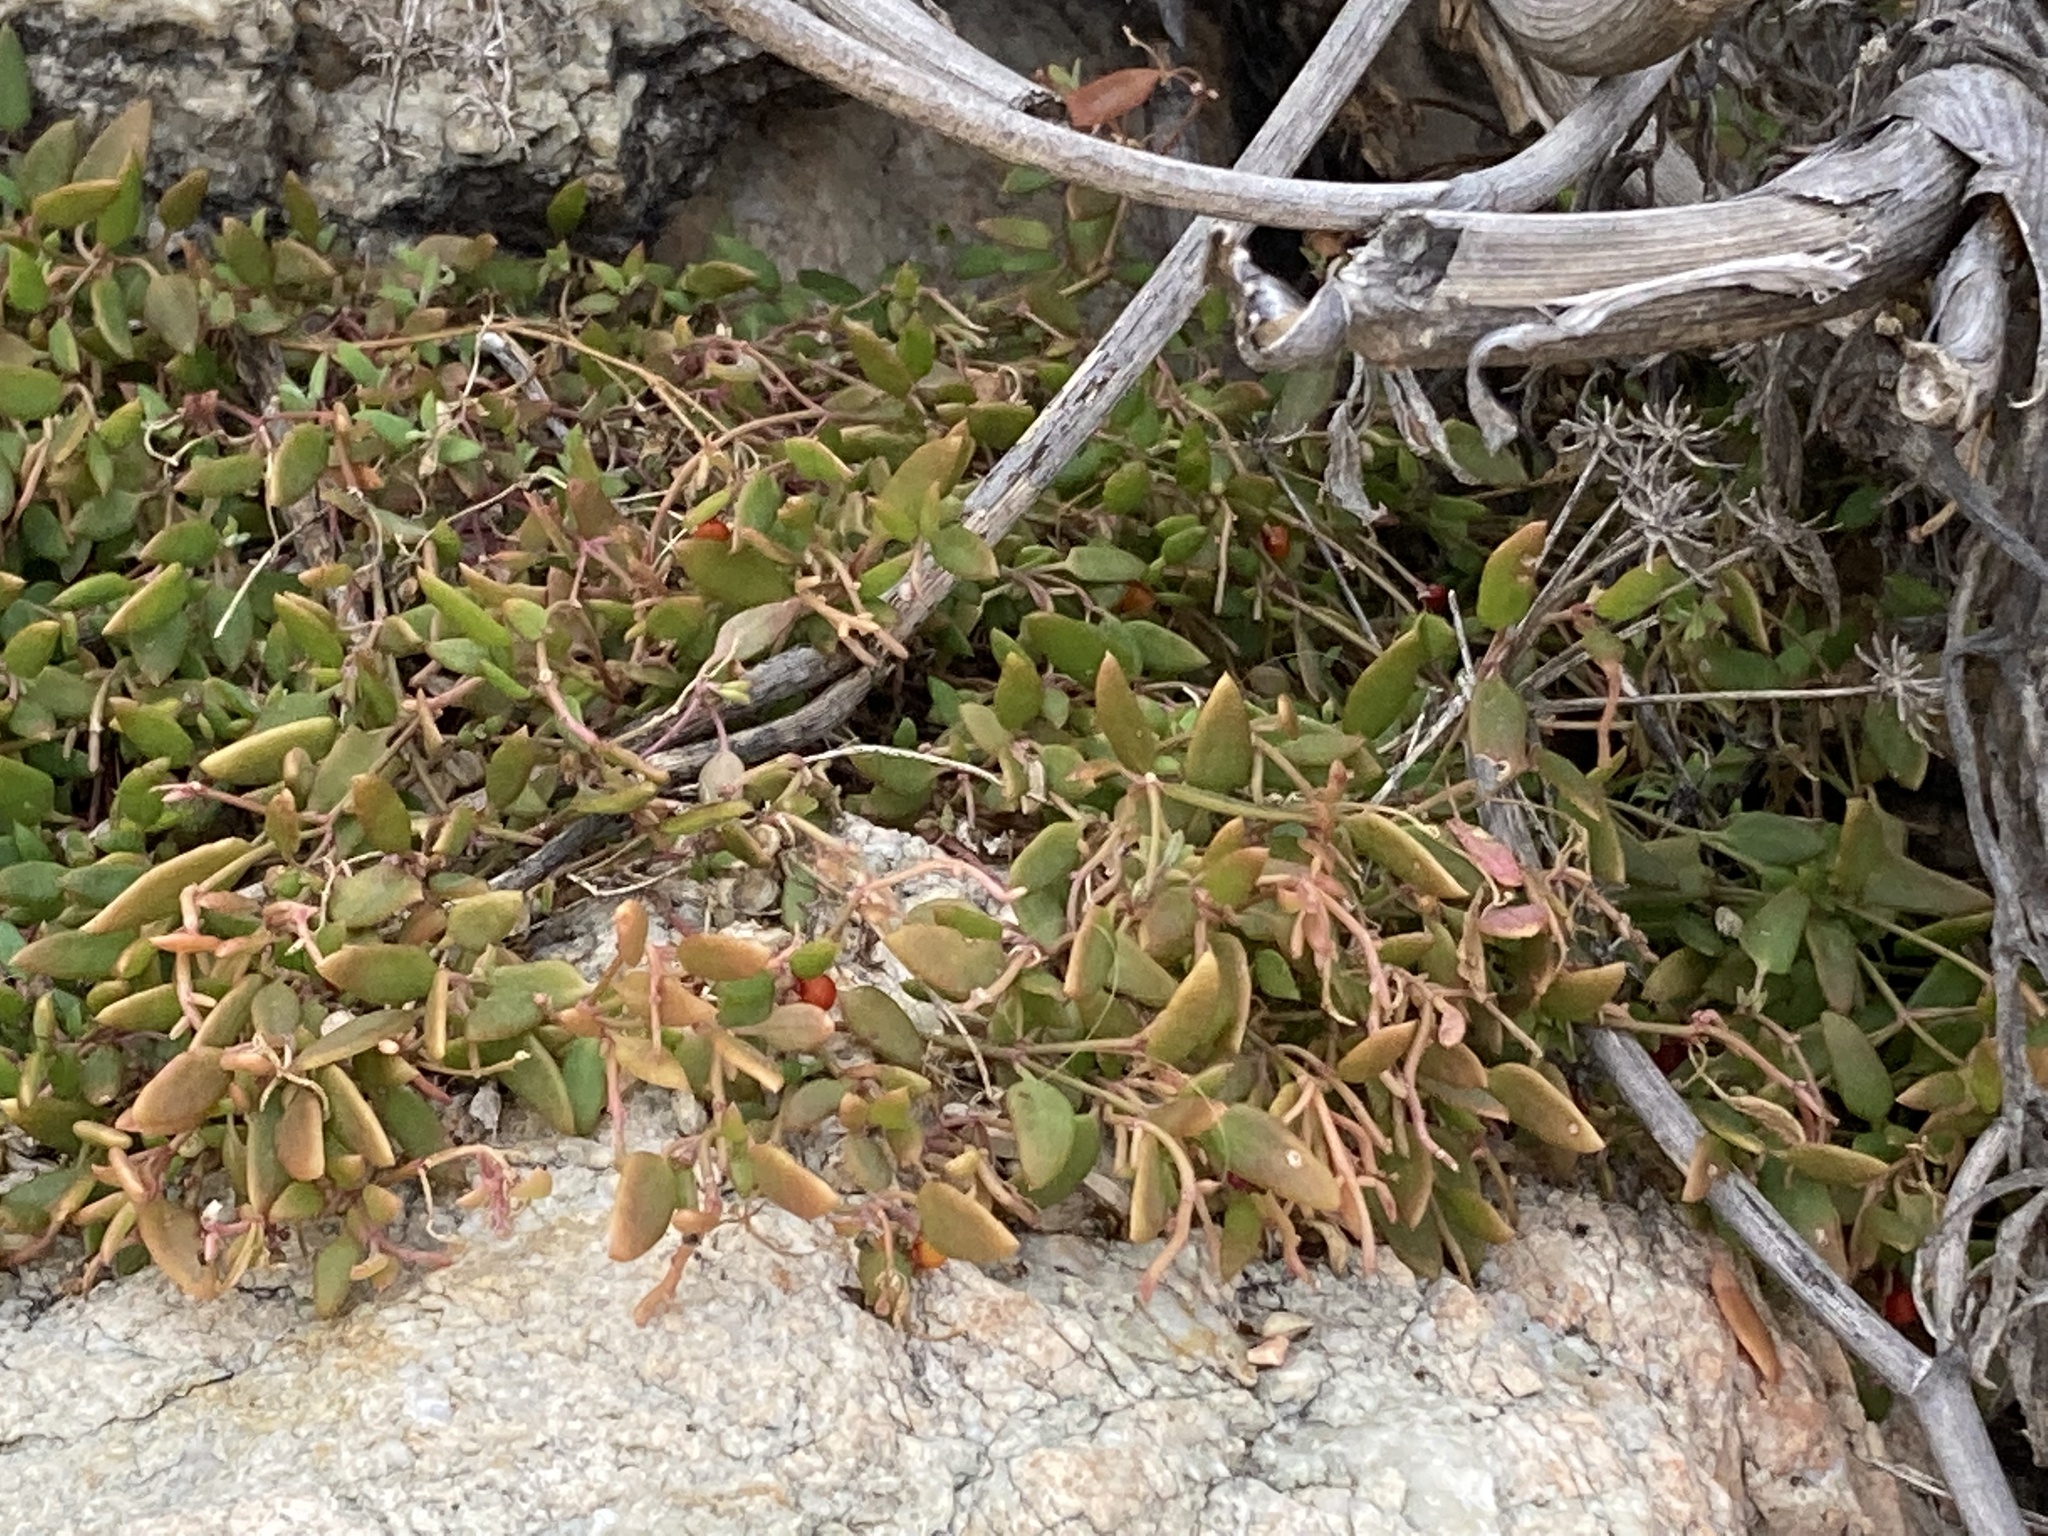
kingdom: Plantae
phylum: Tracheophyta
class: Magnoliopsida
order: Caryophyllales
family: Amaranthaceae
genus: Chenopodium
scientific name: Chenopodium nutans
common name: Climbing-saltbush
